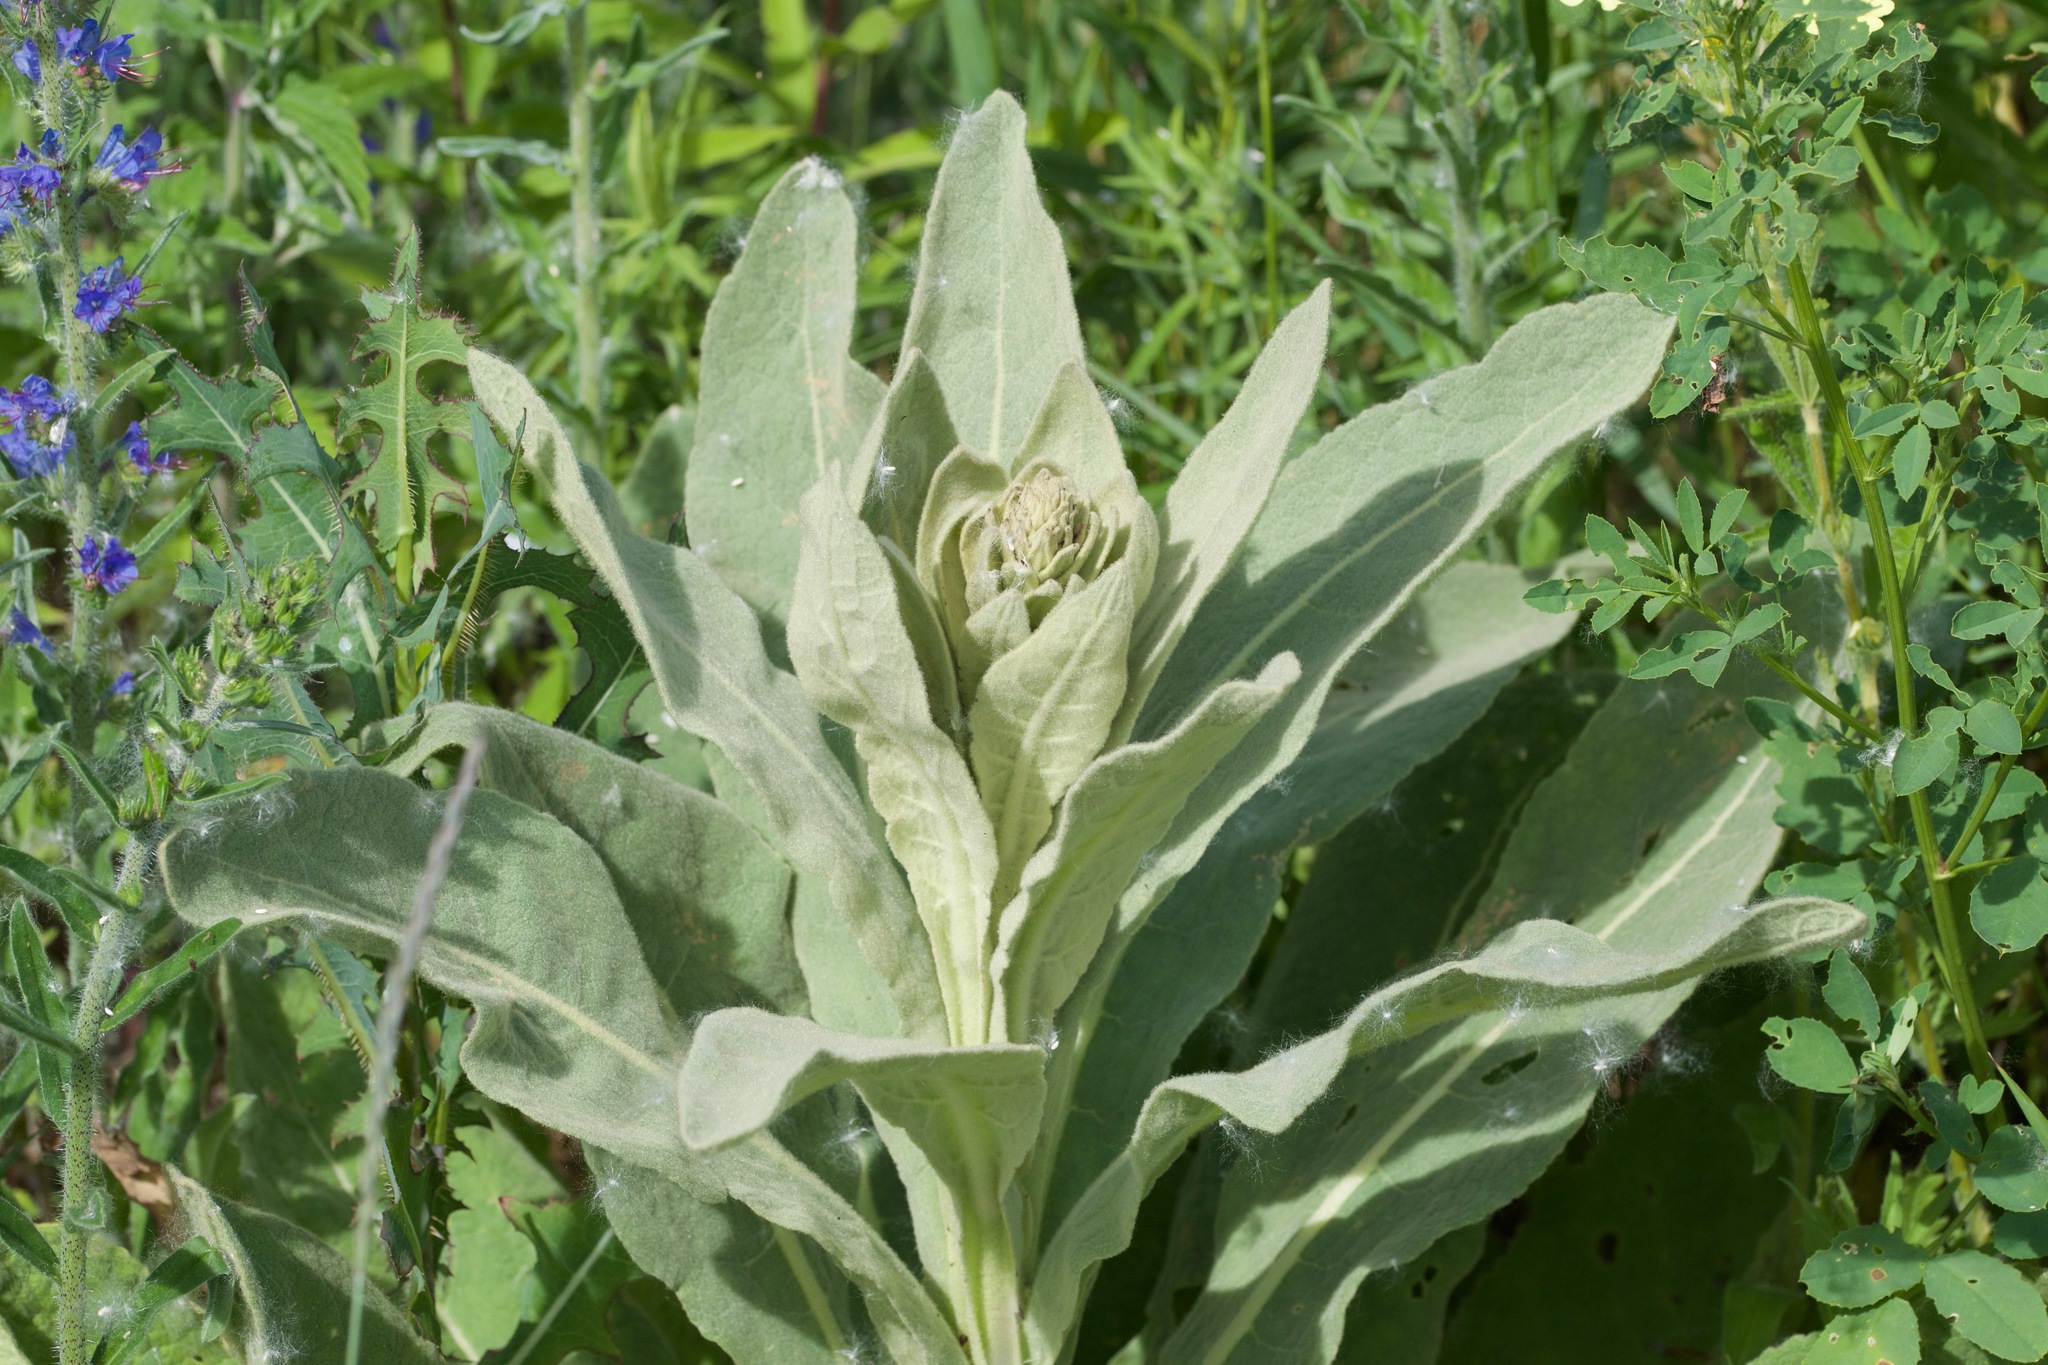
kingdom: Plantae
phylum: Tracheophyta
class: Magnoliopsida
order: Lamiales
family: Scrophulariaceae
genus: Verbascum
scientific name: Verbascum thapsus
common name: Common mullein
